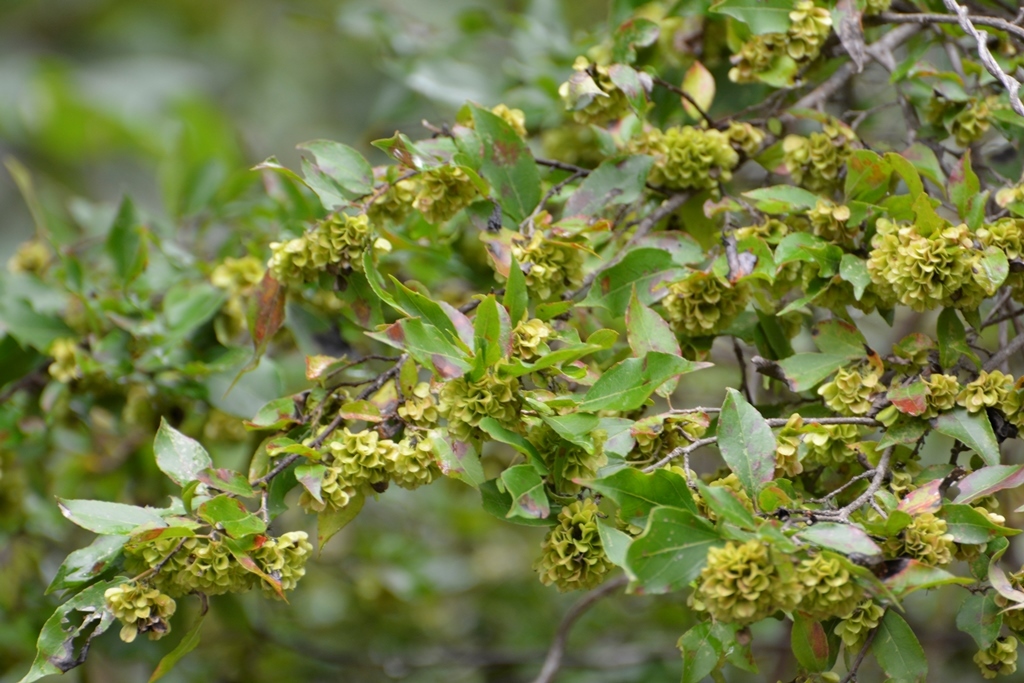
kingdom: Plantae
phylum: Tracheophyta
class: Magnoliopsida
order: Celastrales
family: Celastraceae
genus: Wimmeria
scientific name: Wimmeria pubescens
